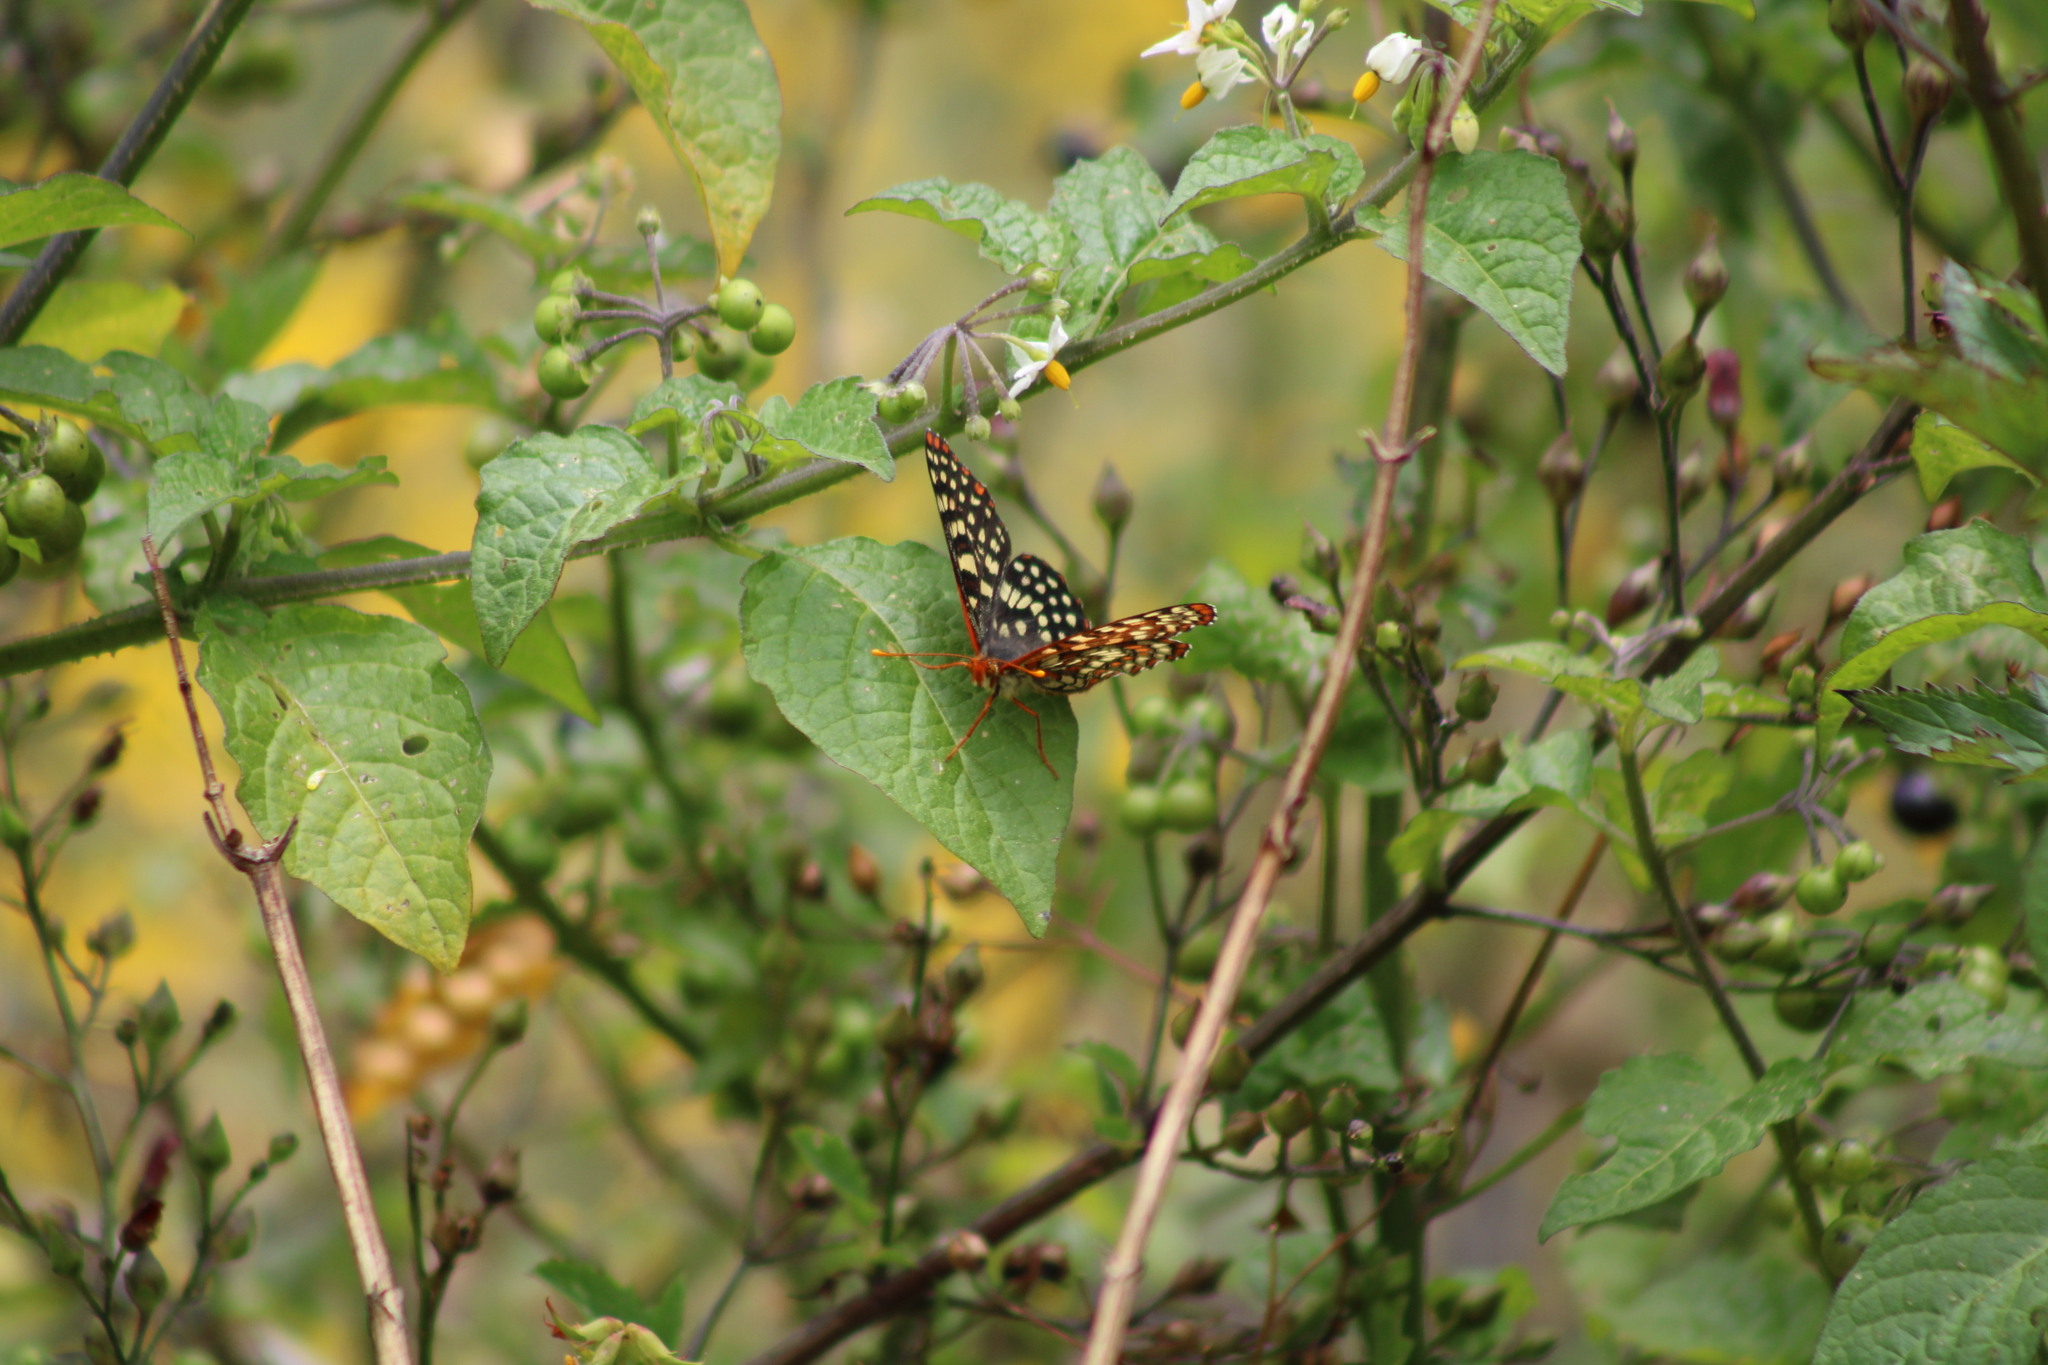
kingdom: Animalia
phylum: Arthropoda
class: Insecta
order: Lepidoptera
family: Nymphalidae
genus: Occidryas
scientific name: Occidryas chalcedona
